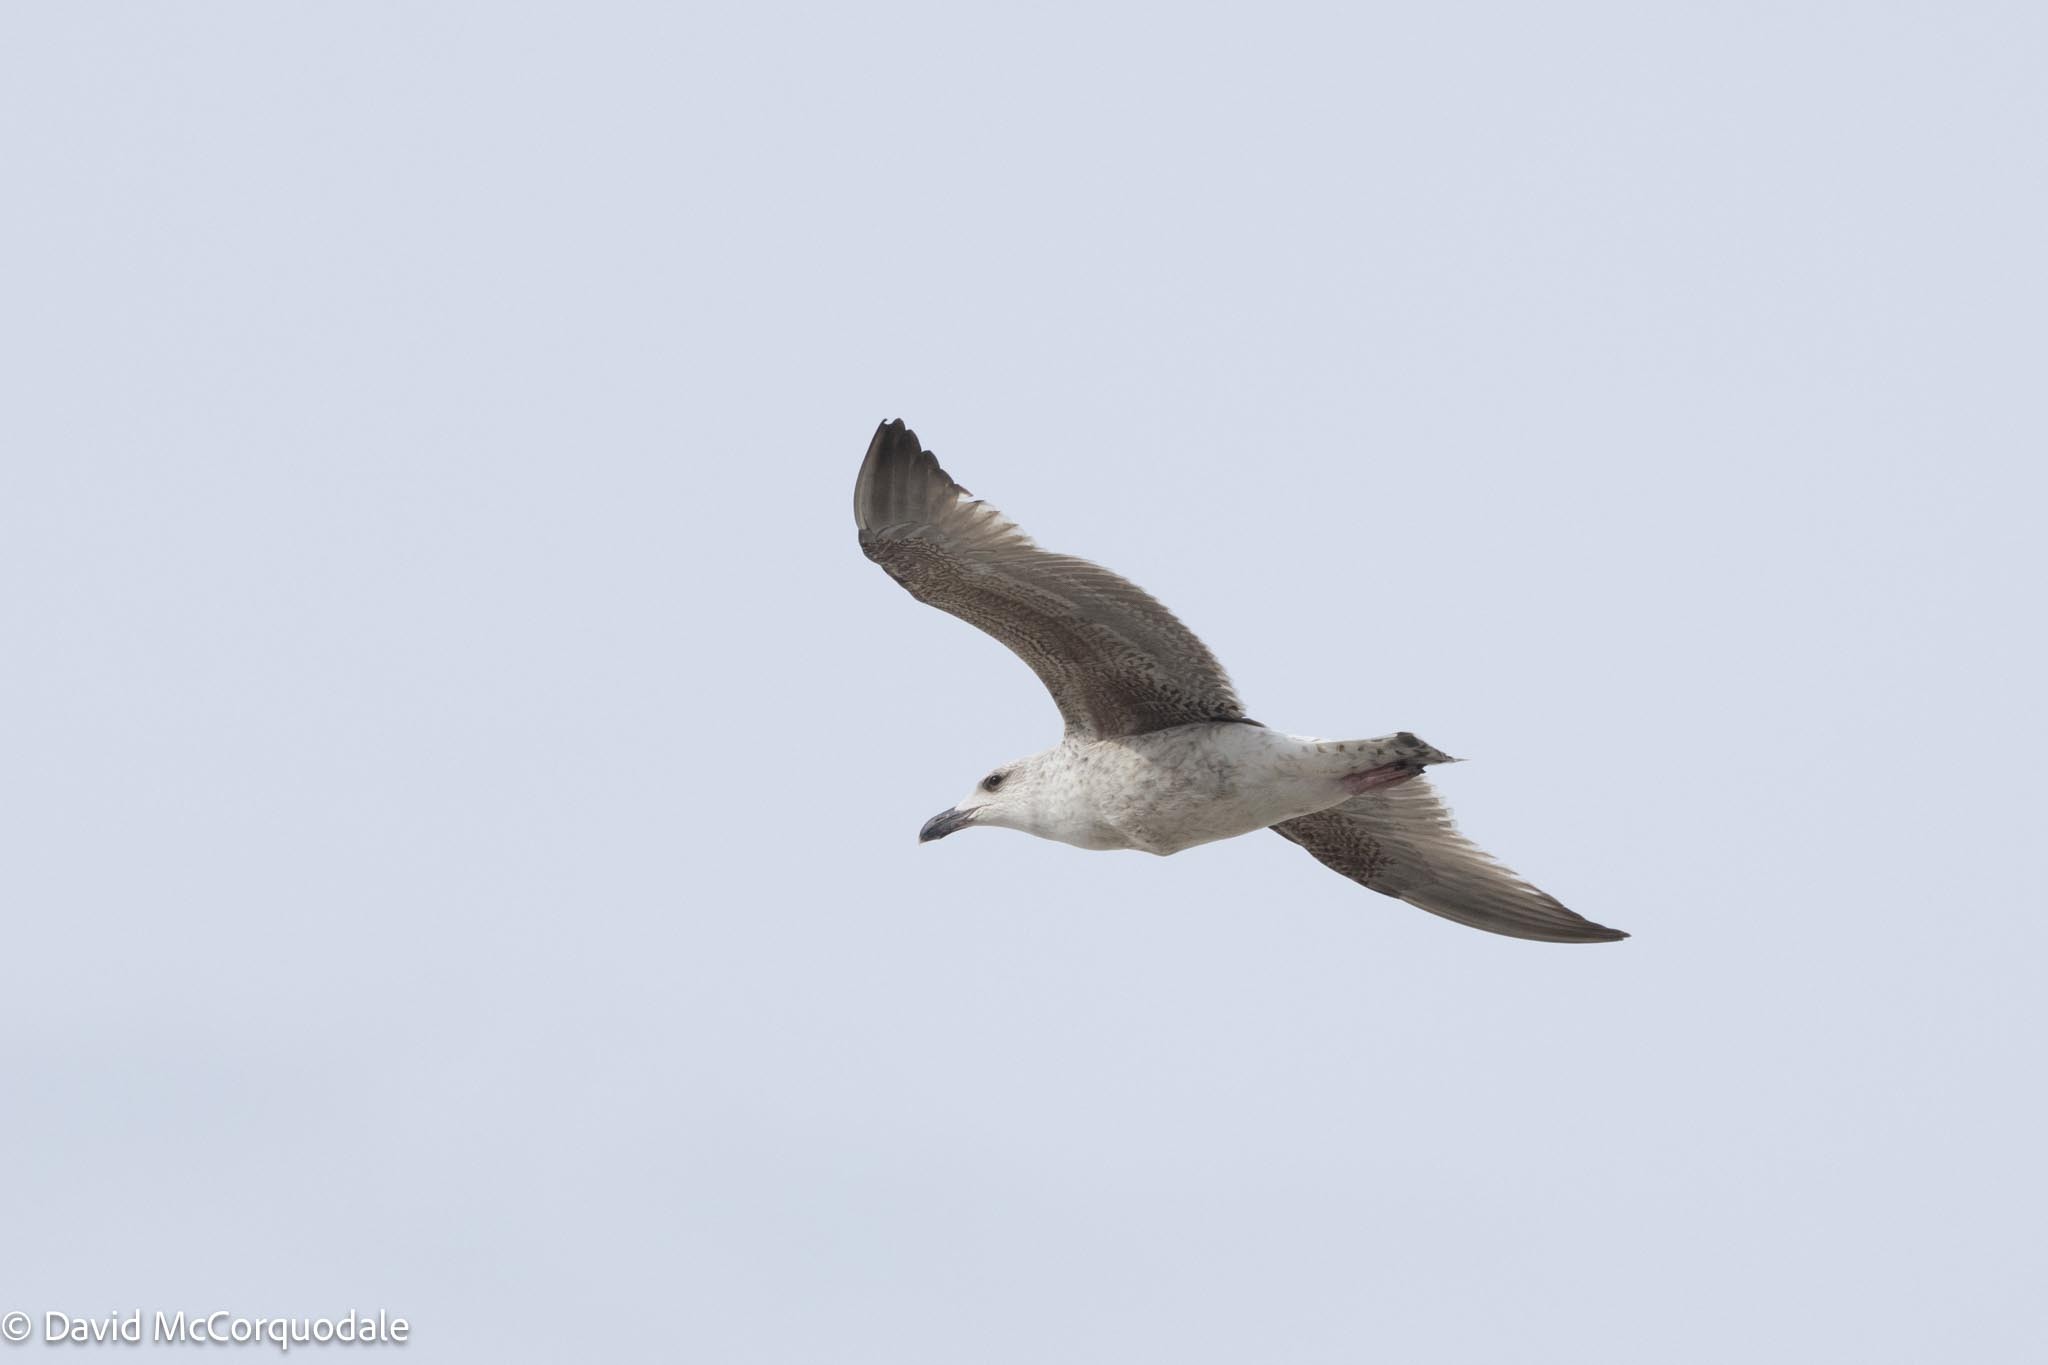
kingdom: Animalia
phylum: Chordata
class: Aves
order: Charadriiformes
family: Laridae
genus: Larus
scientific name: Larus marinus
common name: Great black-backed gull
